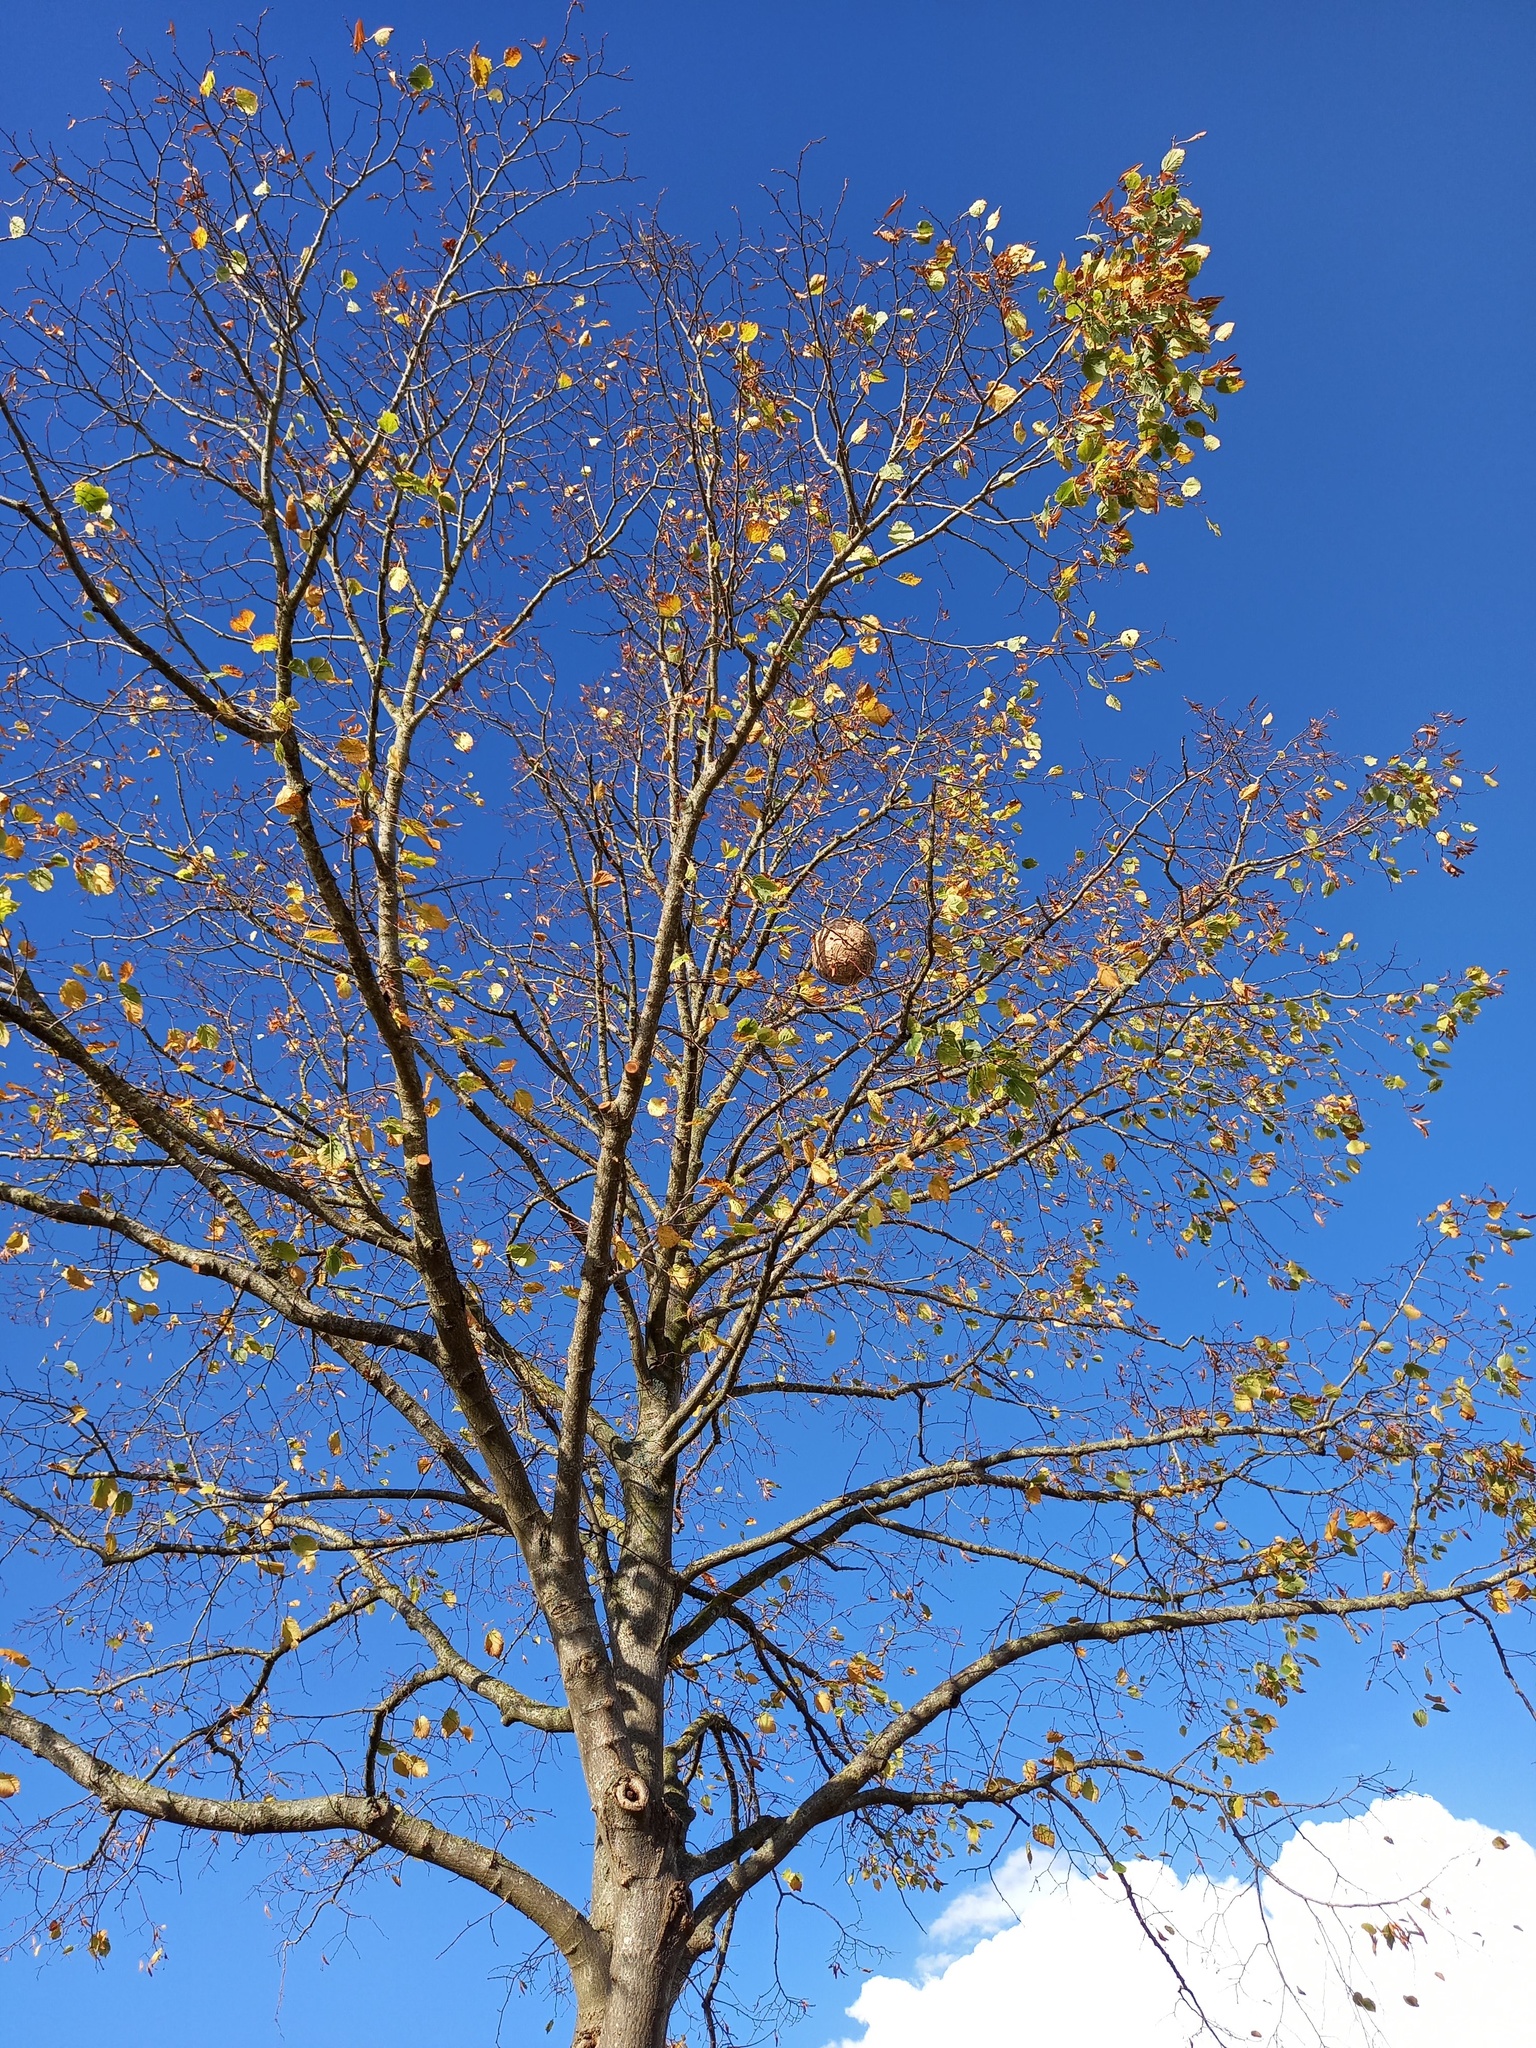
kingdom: Animalia
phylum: Arthropoda
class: Insecta
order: Hymenoptera
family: Vespidae
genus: Vespa
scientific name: Vespa velutina
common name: Asian hornet
